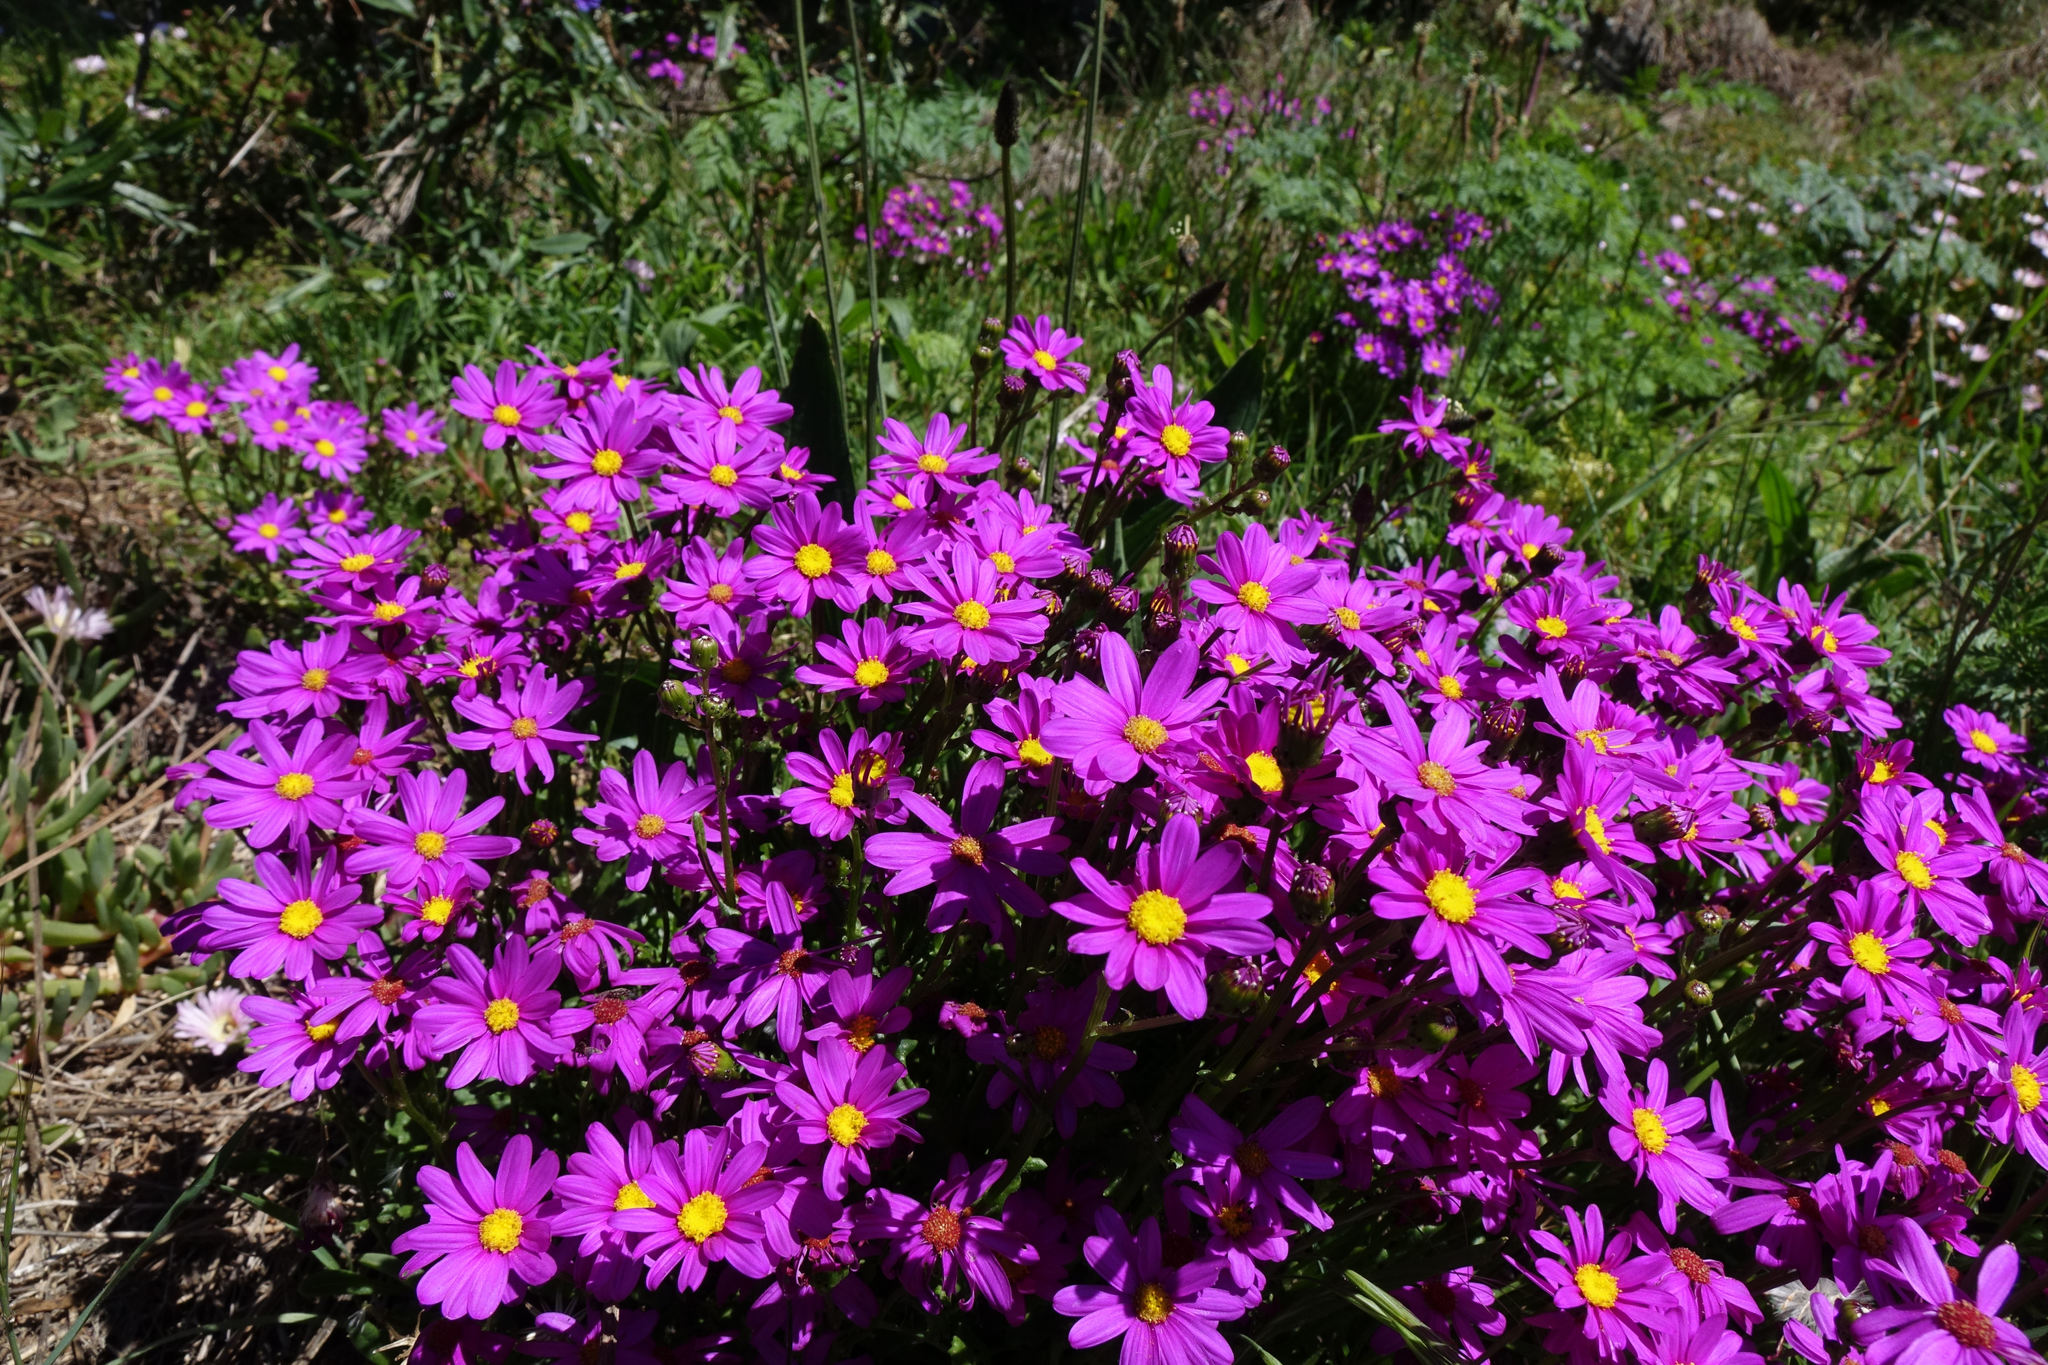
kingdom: Plantae
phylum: Tracheophyta
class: Magnoliopsida
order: Asterales
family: Asteraceae
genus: Senecio
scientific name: Senecio elegans
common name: Purple groundsel
